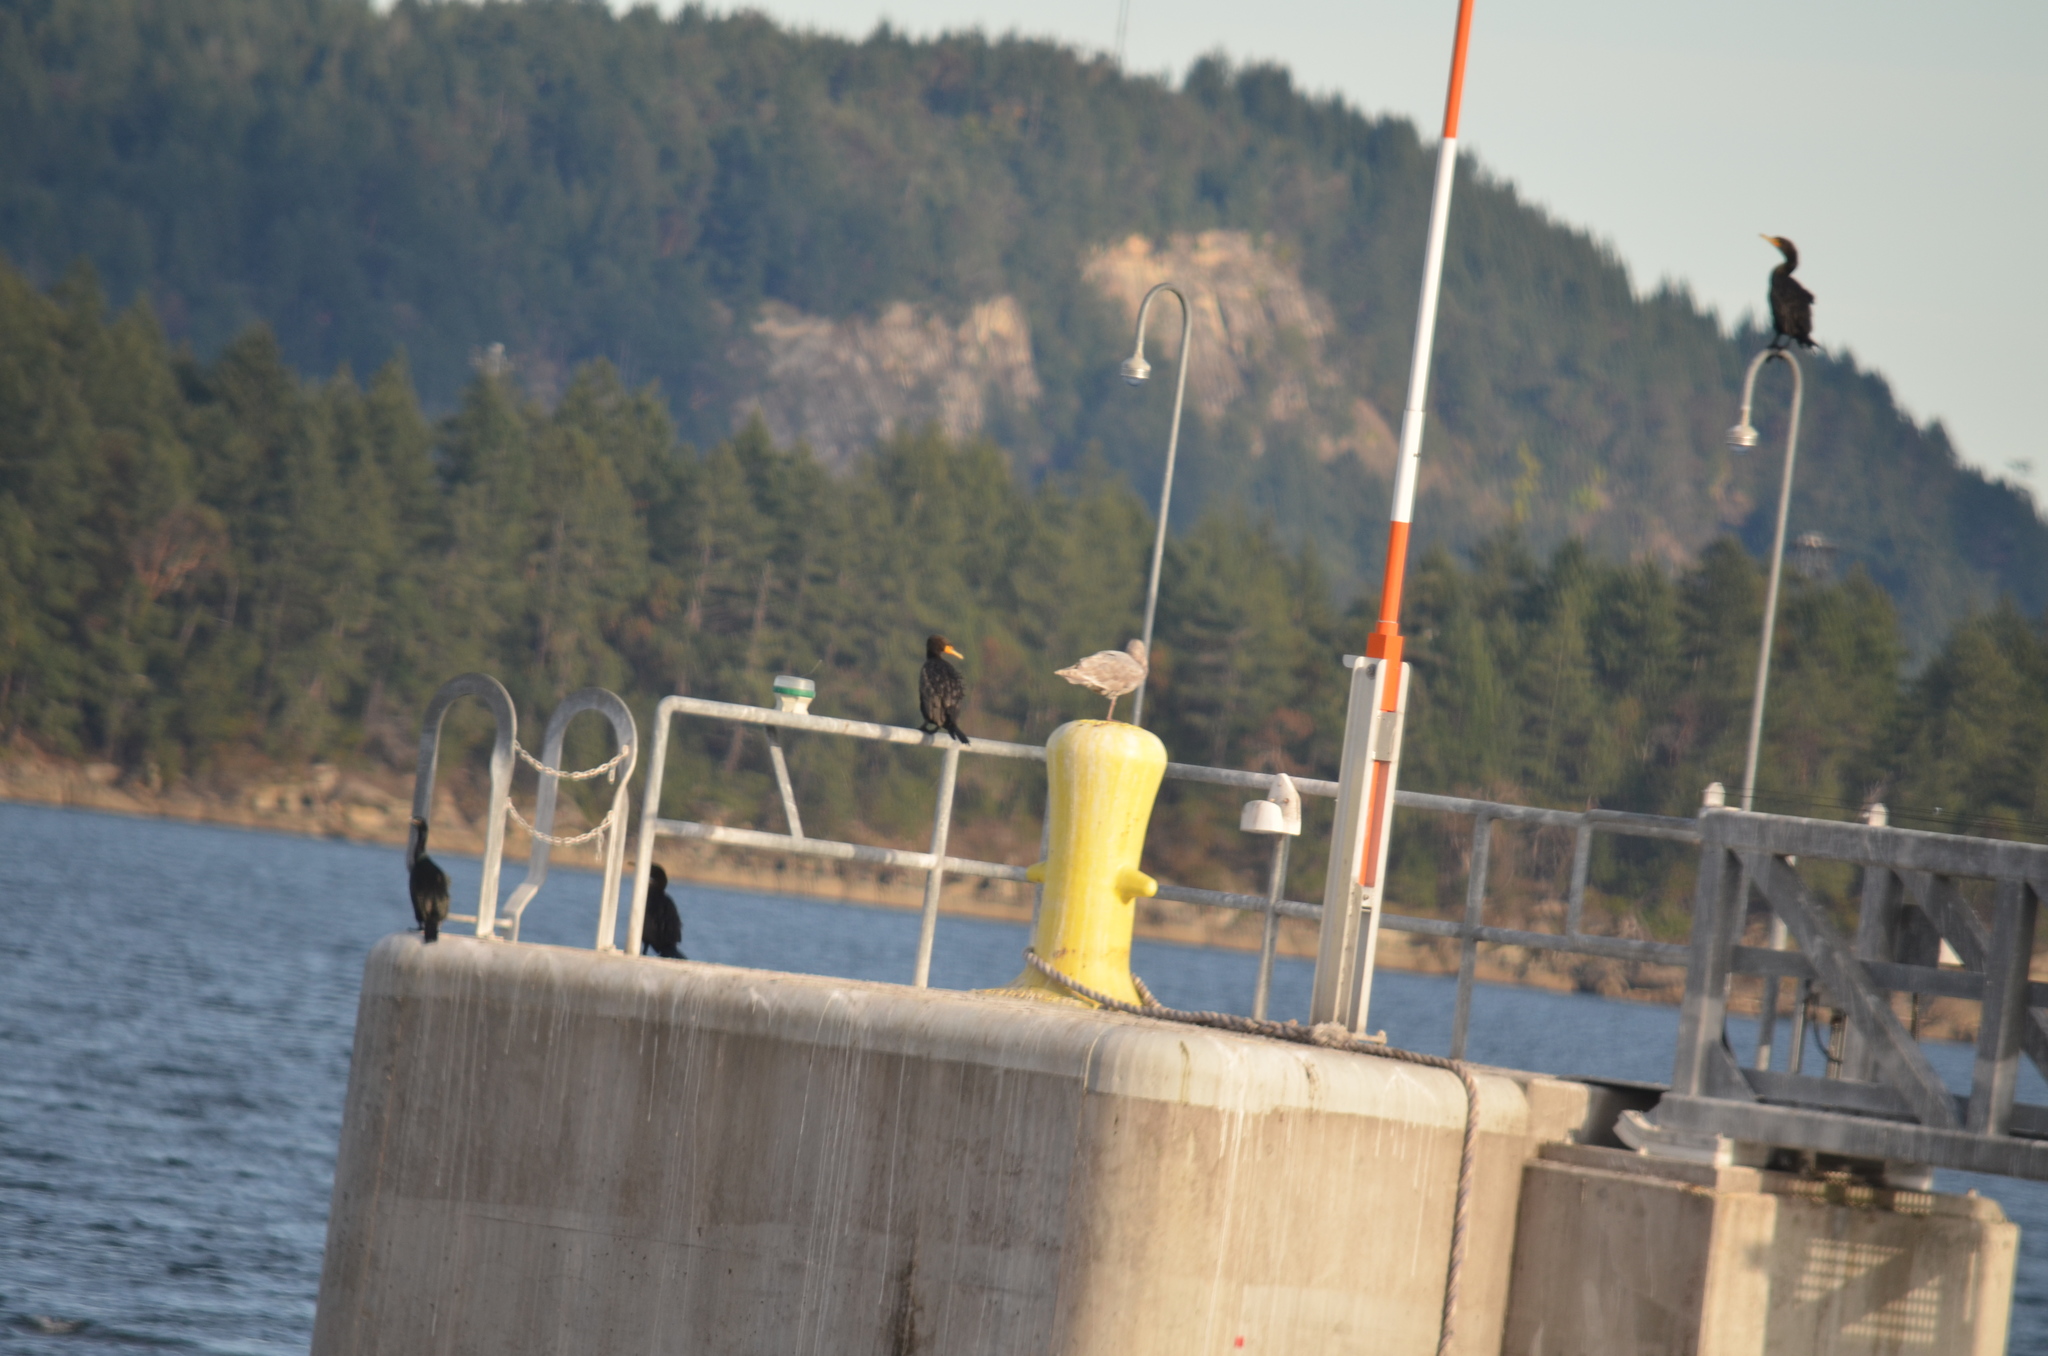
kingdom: Animalia
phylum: Chordata
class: Aves
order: Suliformes
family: Phalacrocoracidae
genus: Phalacrocorax
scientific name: Phalacrocorax auritus
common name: Double-crested cormorant
